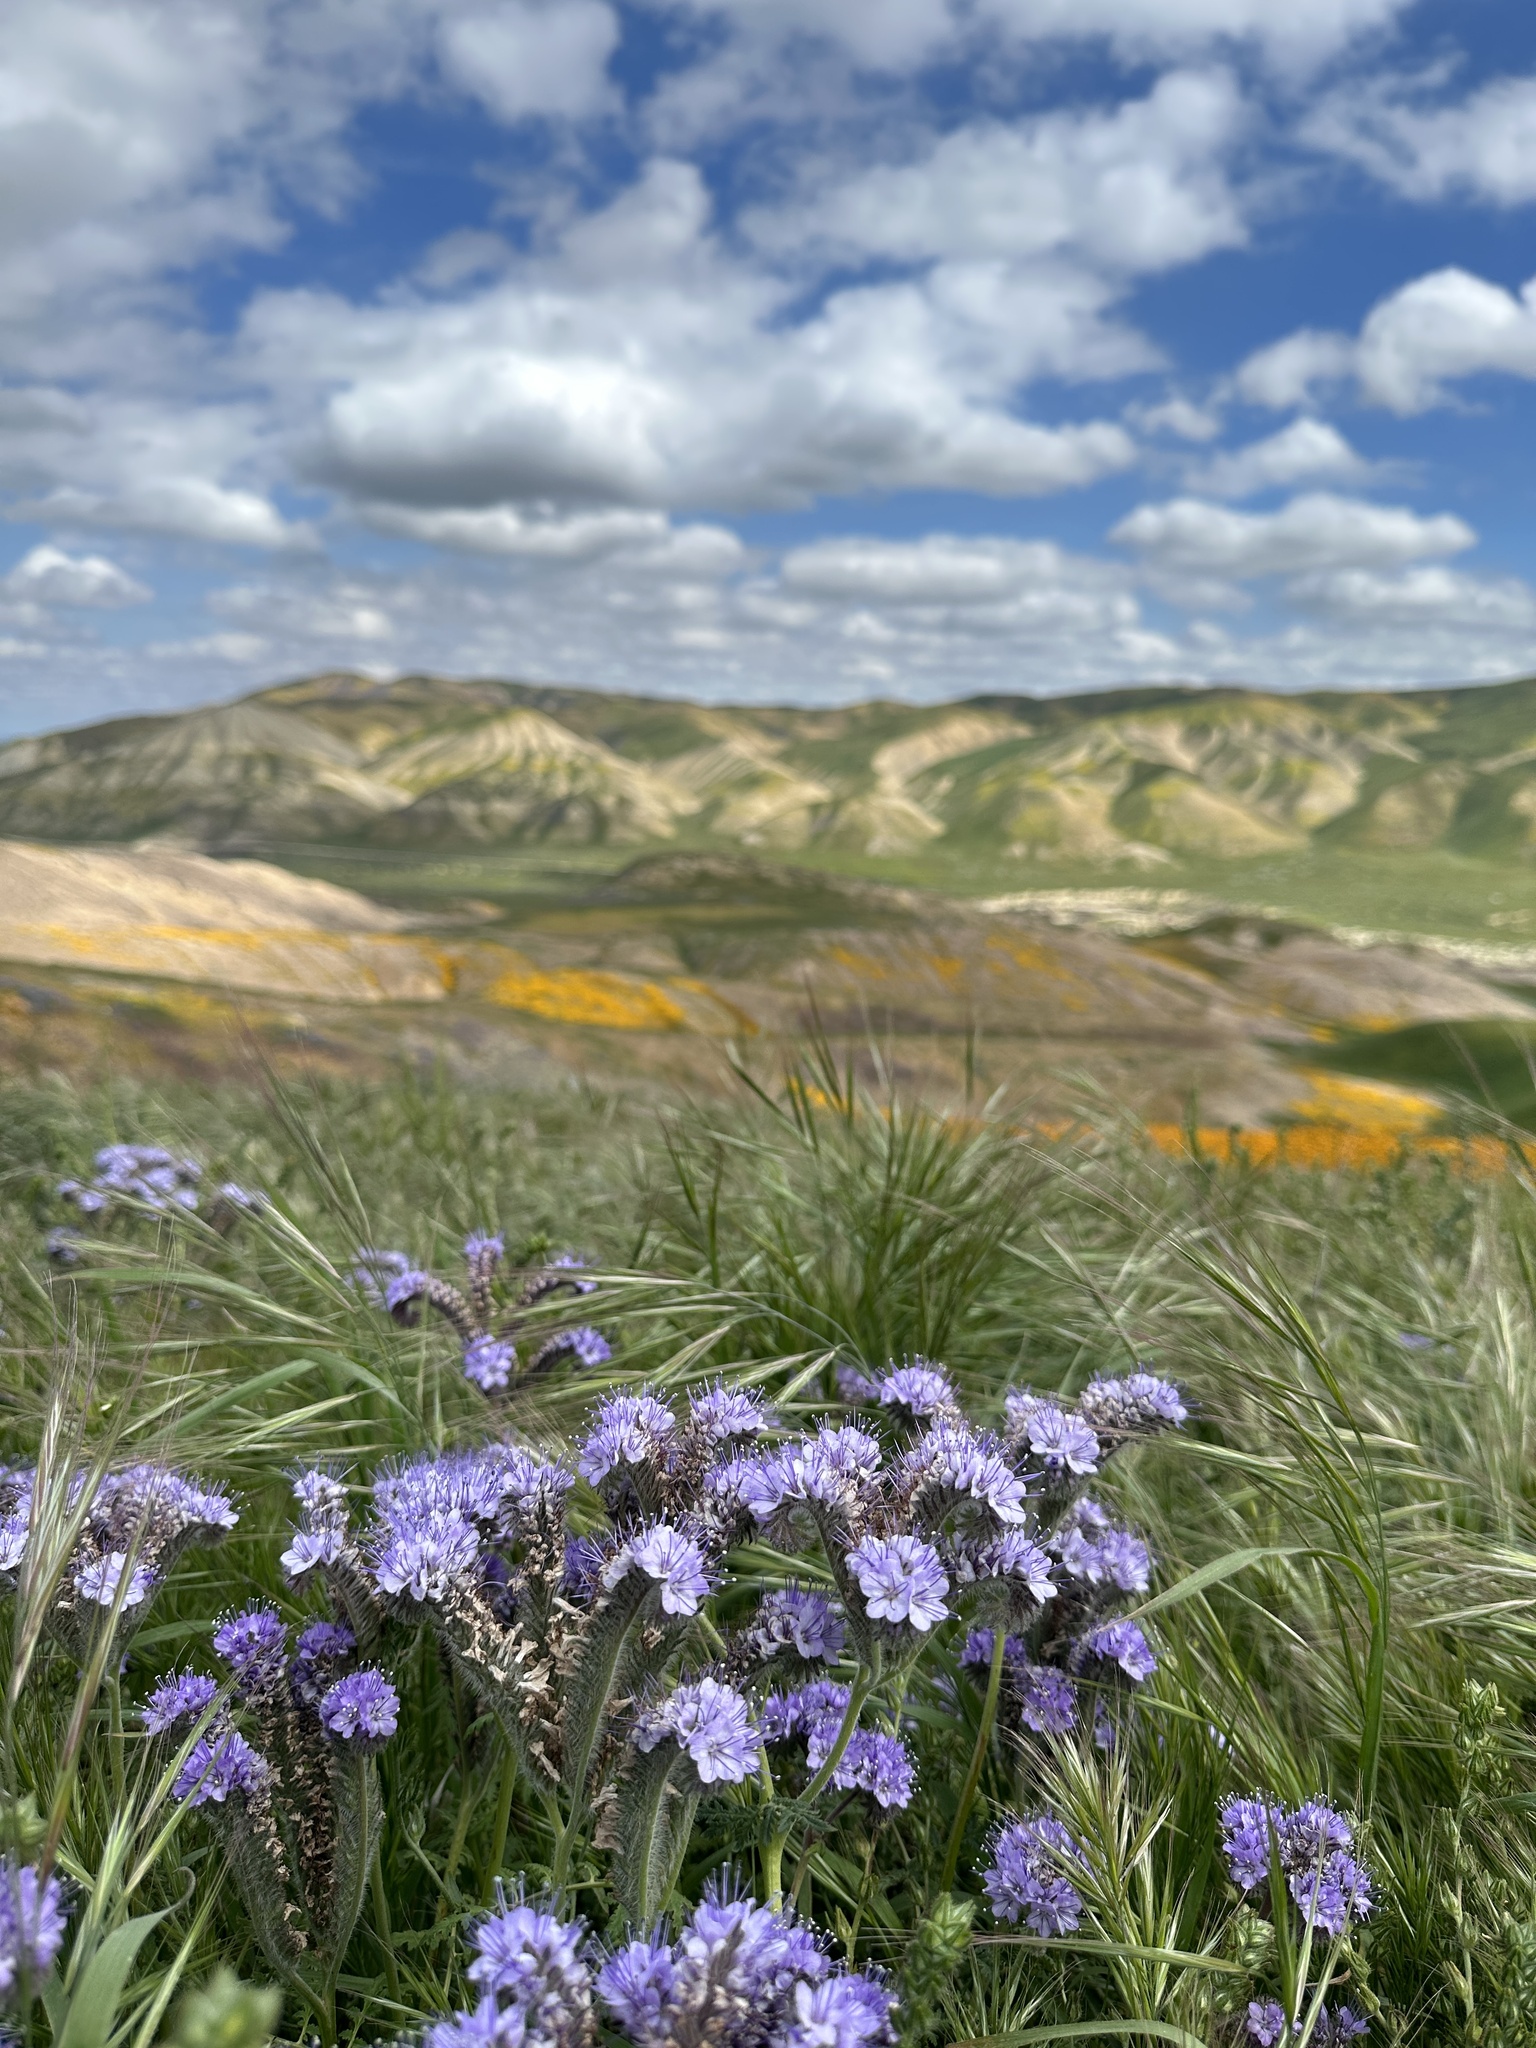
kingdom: Plantae
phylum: Tracheophyta
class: Magnoliopsida
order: Boraginales
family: Hydrophyllaceae
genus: Phacelia
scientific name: Phacelia tanacetifolia
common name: Phacelia
